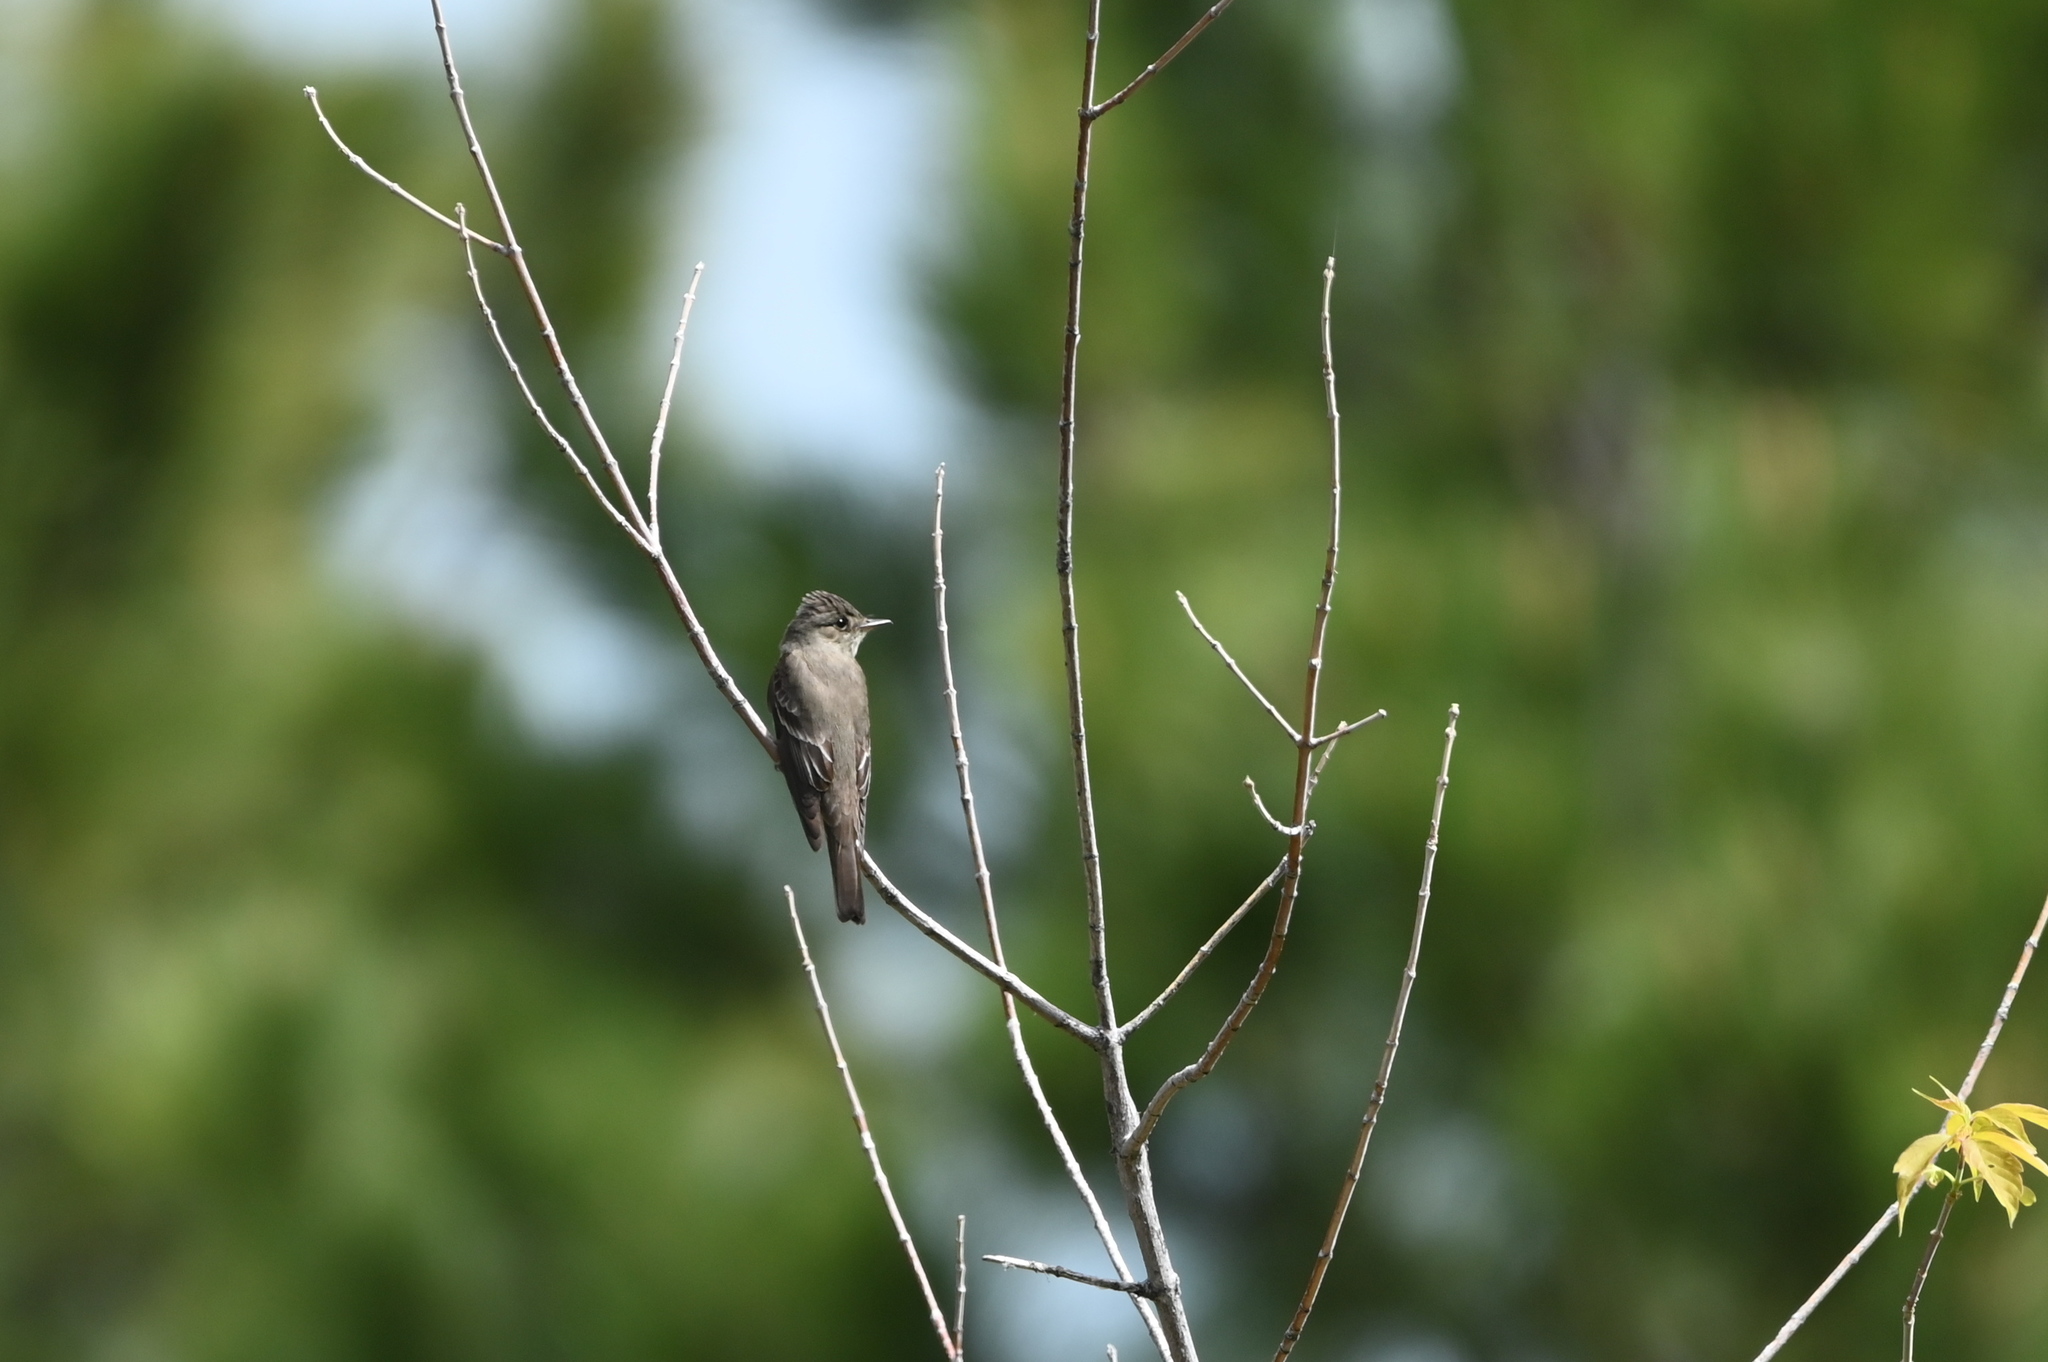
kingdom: Animalia
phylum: Chordata
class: Aves
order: Passeriformes
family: Tyrannidae
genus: Contopus
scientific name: Contopus sordidulus
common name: Western wood-pewee
